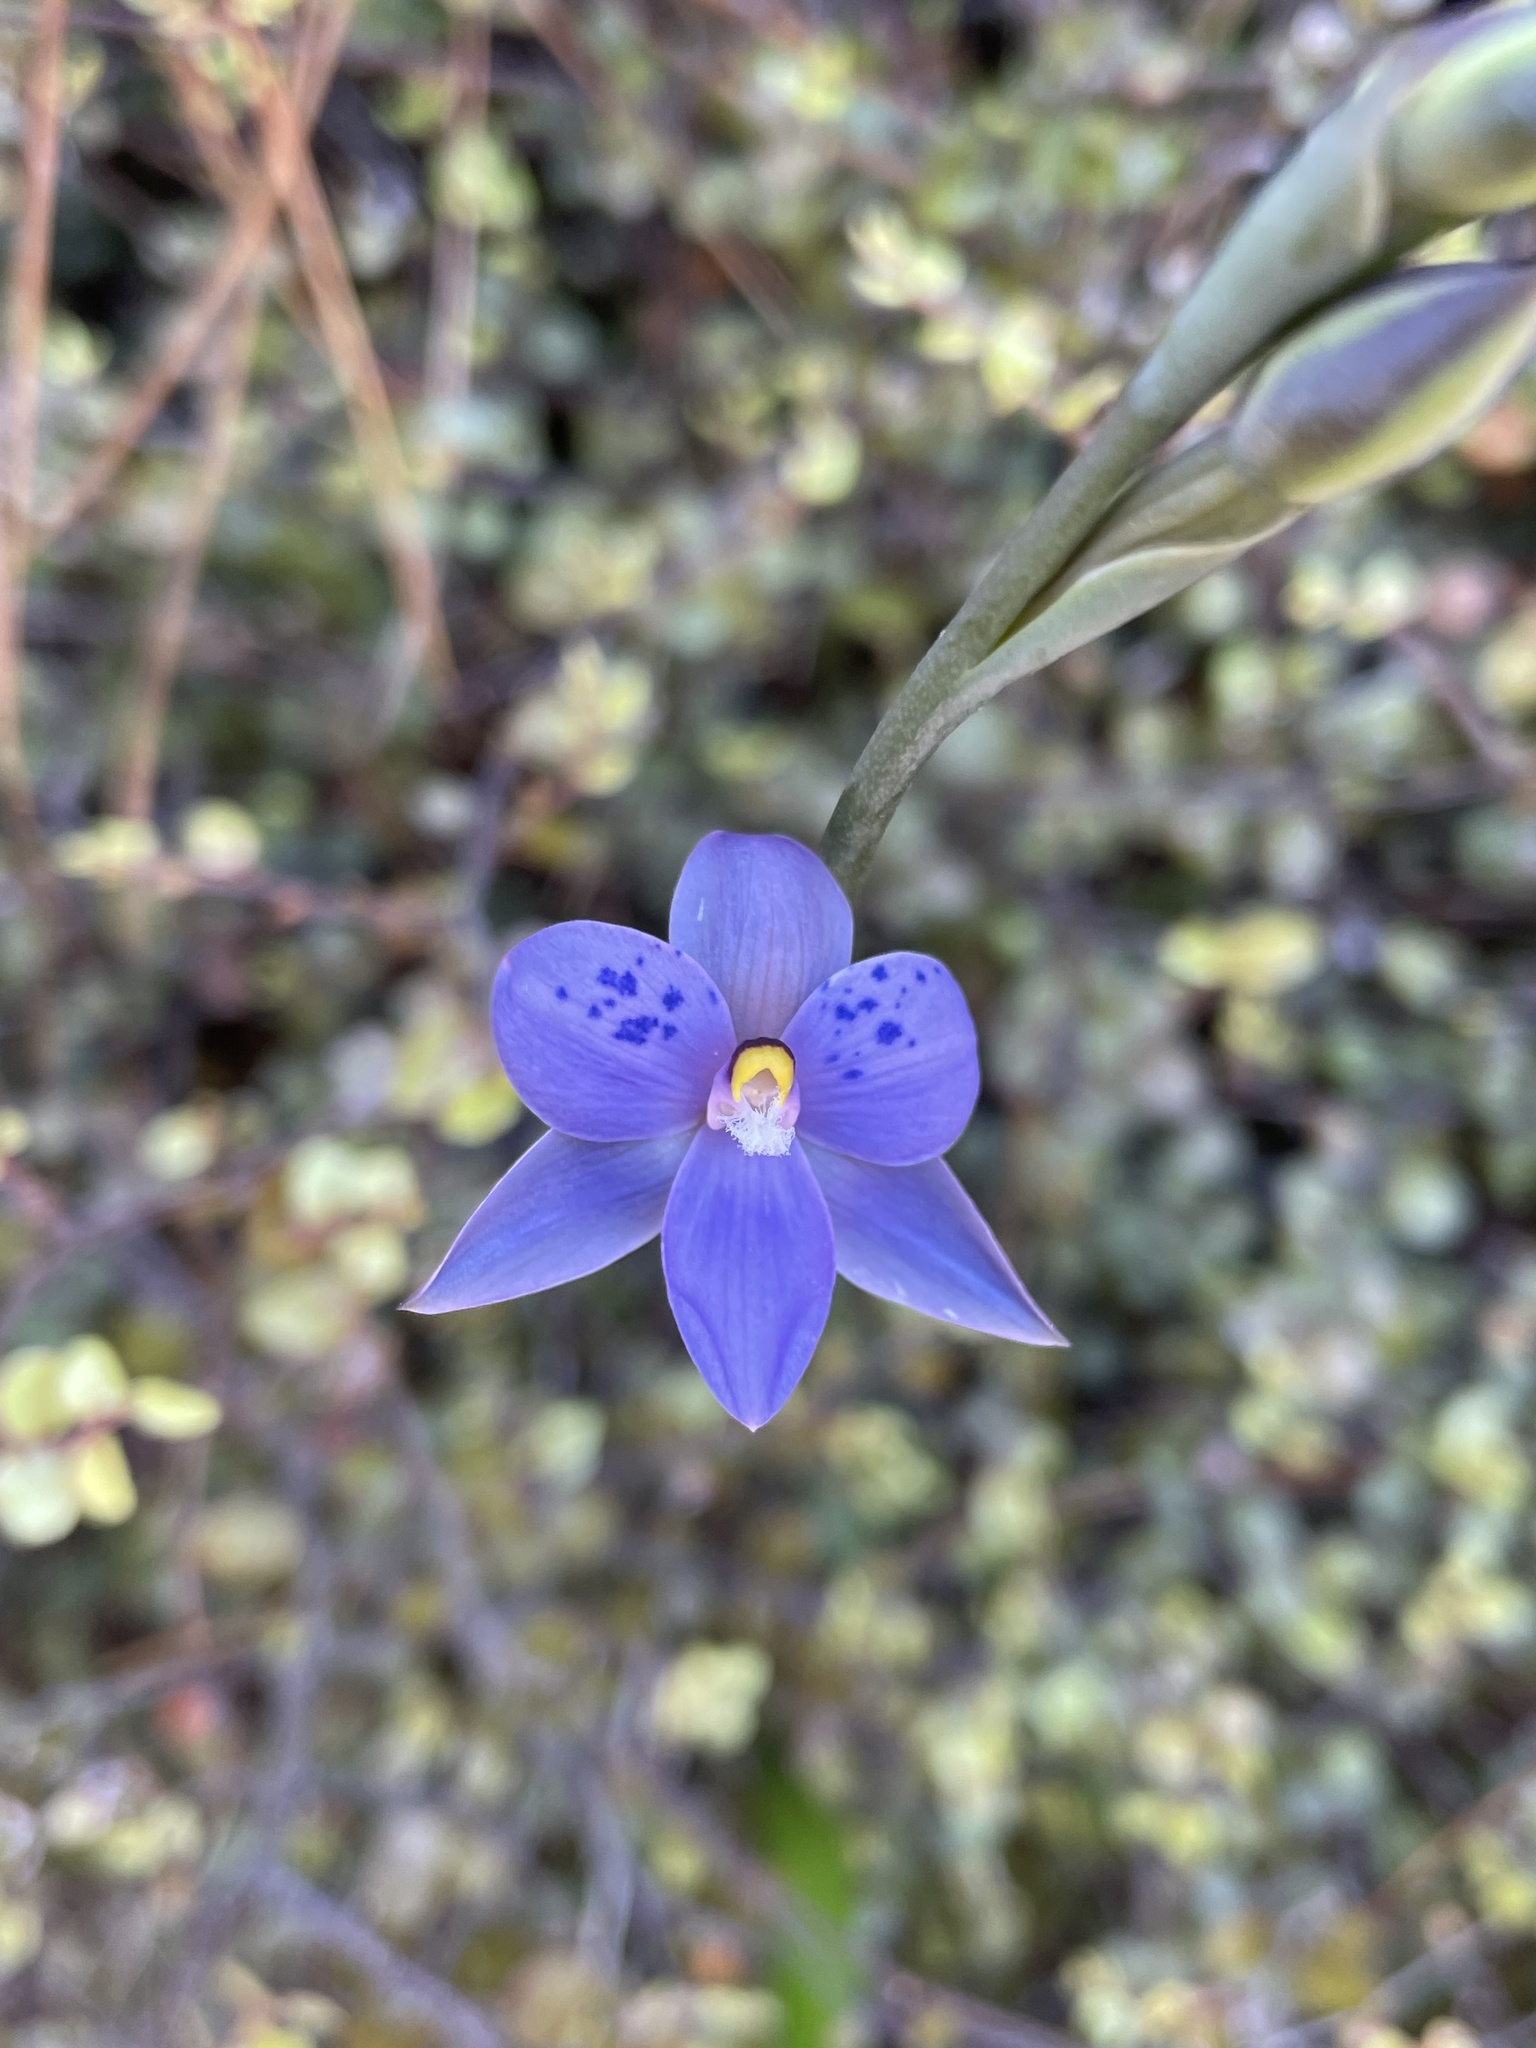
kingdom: Plantae
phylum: Tracheophyta
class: Liliopsida
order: Asparagales
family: Orchidaceae
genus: Thelymitra
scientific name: Thelymitra nervosa
